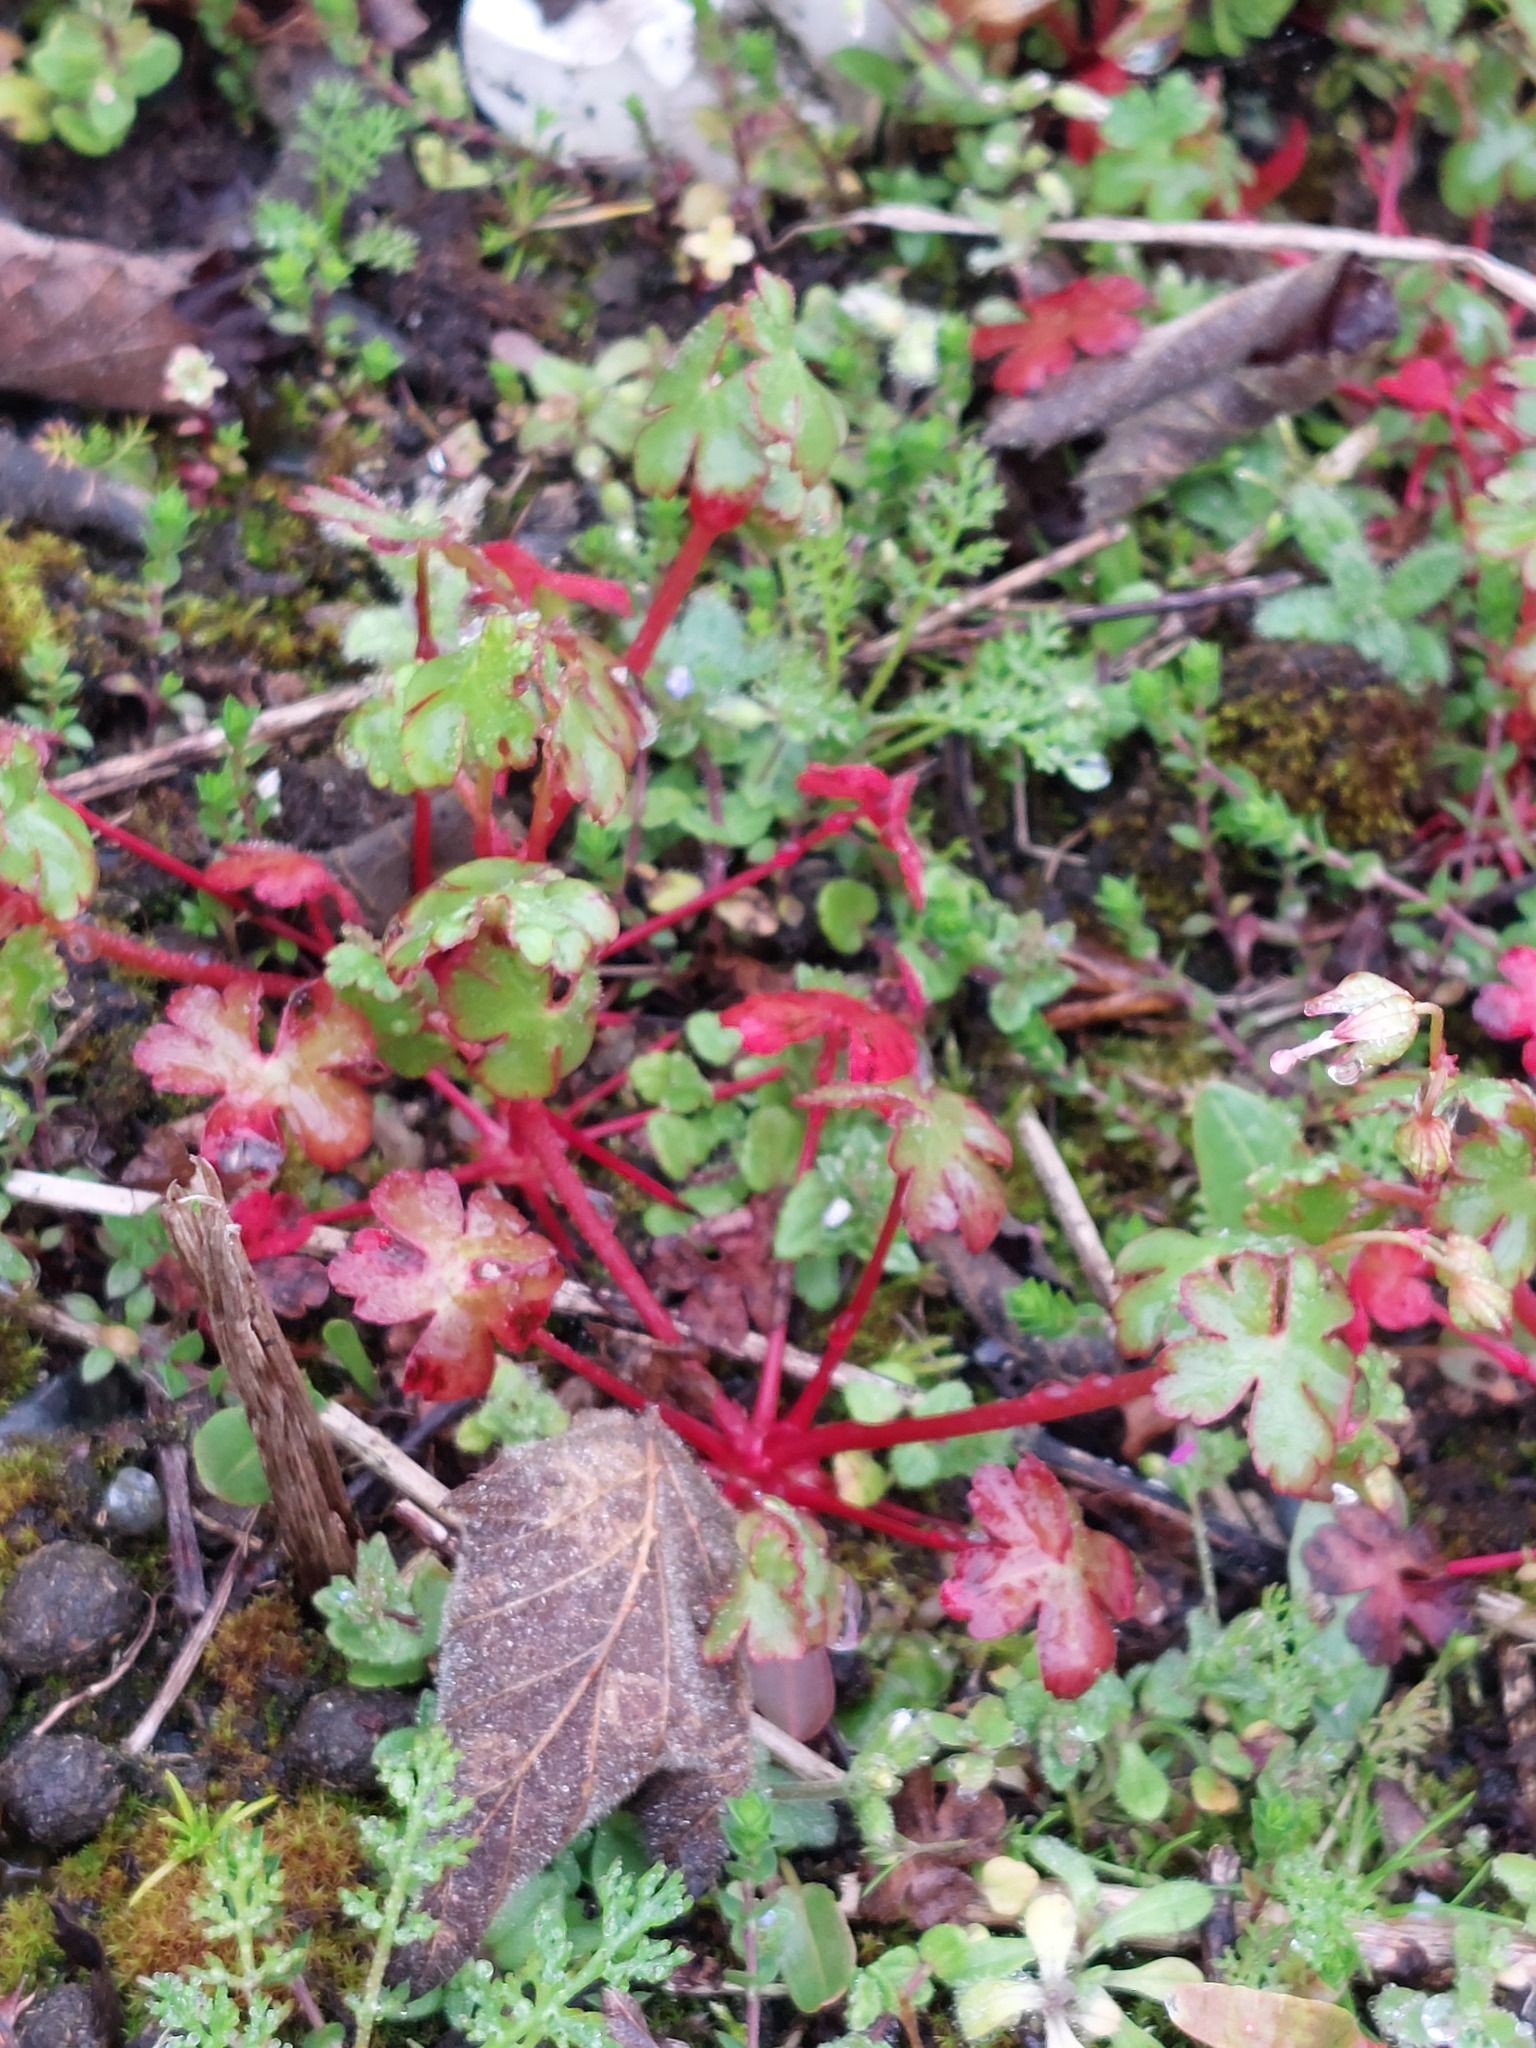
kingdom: Plantae
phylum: Tracheophyta
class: Magnoliopsida
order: Geraniales
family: Geraniaceae
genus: Geranium
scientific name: Geranium lucidum
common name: Shining crane's-bill
